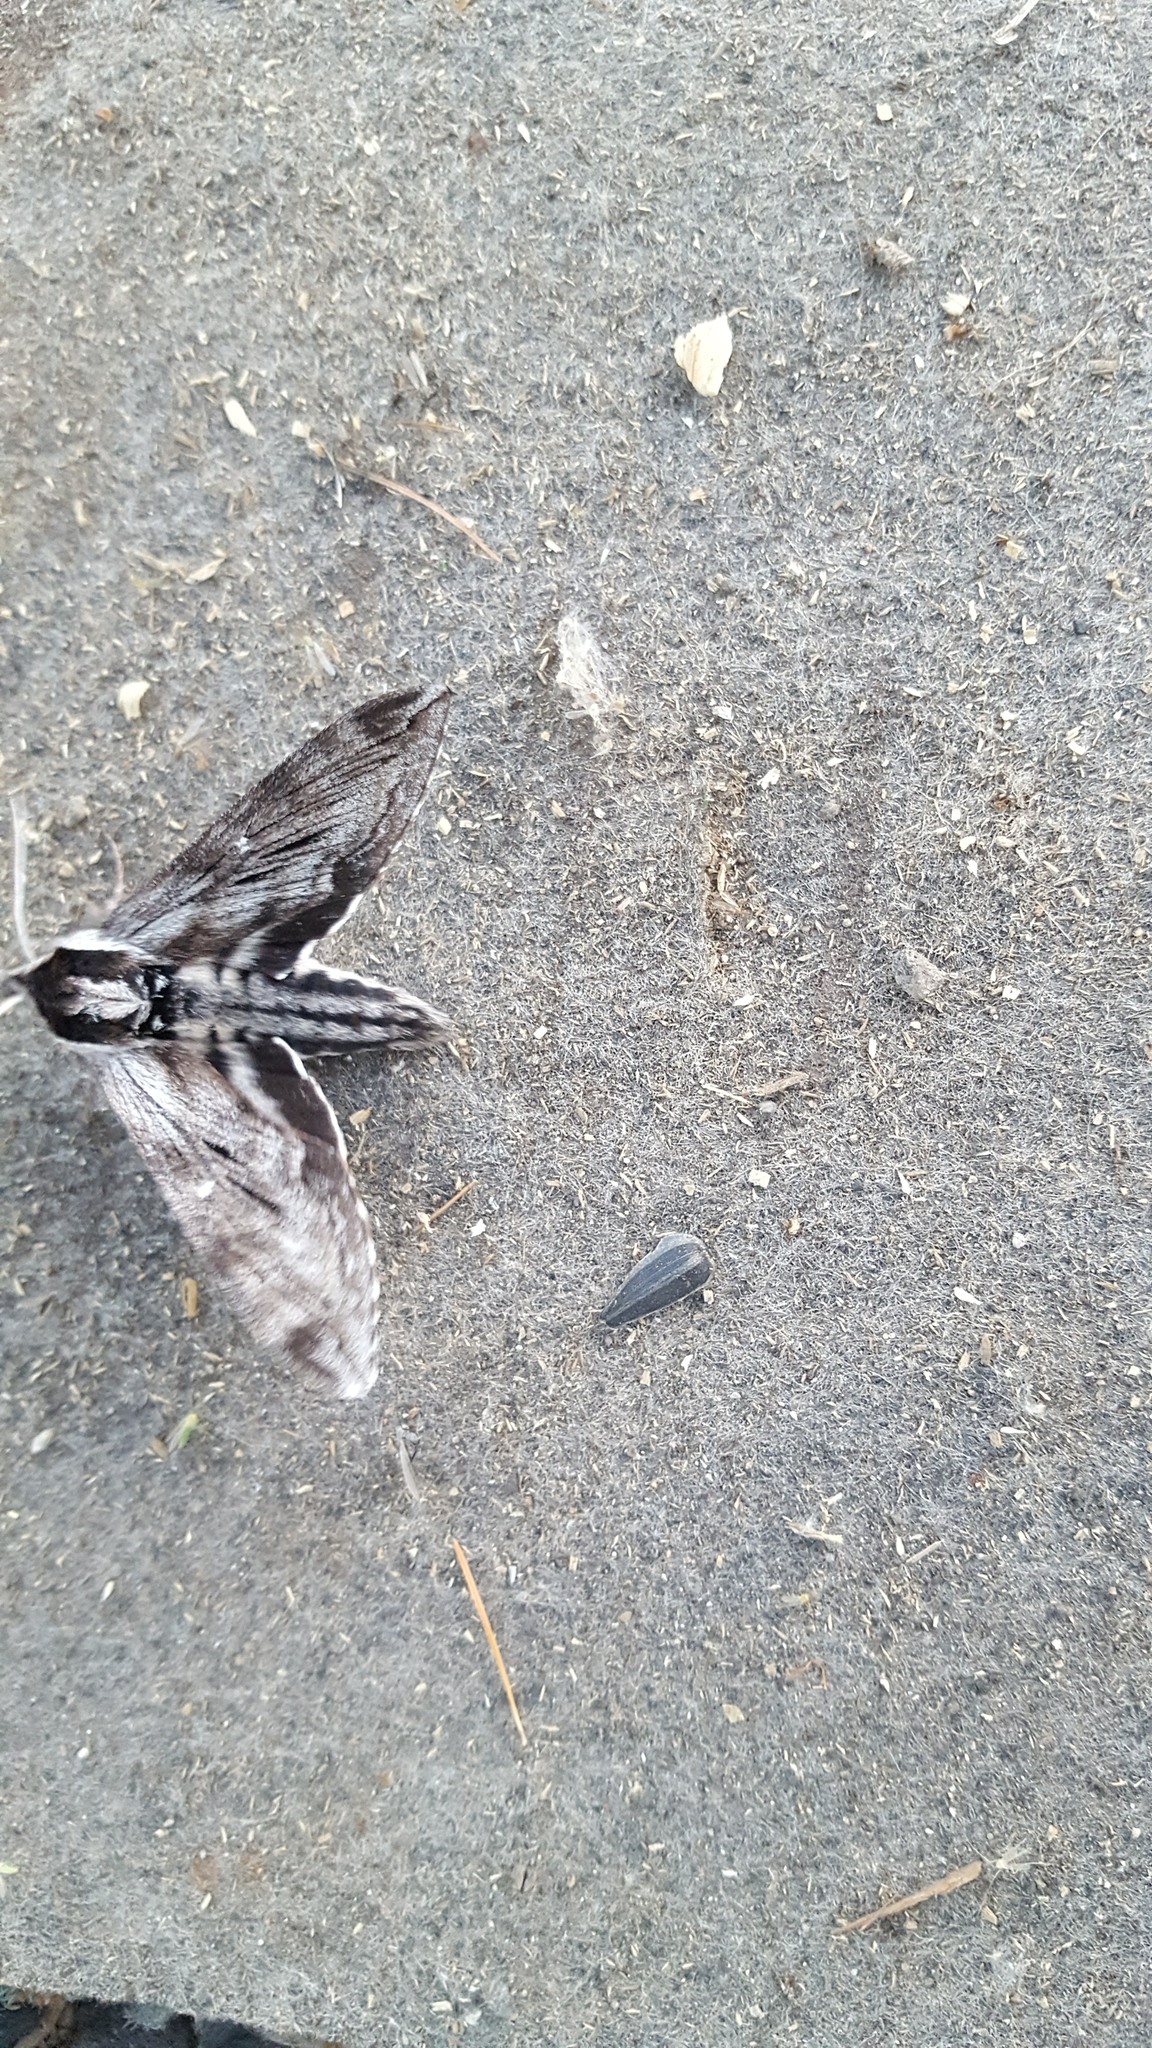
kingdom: Animalia
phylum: Arthropoda
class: Insecta
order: Lepidoptera
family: Sphingidae
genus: Sphinx
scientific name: Sphinx poecila
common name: Northern apple sphinx
